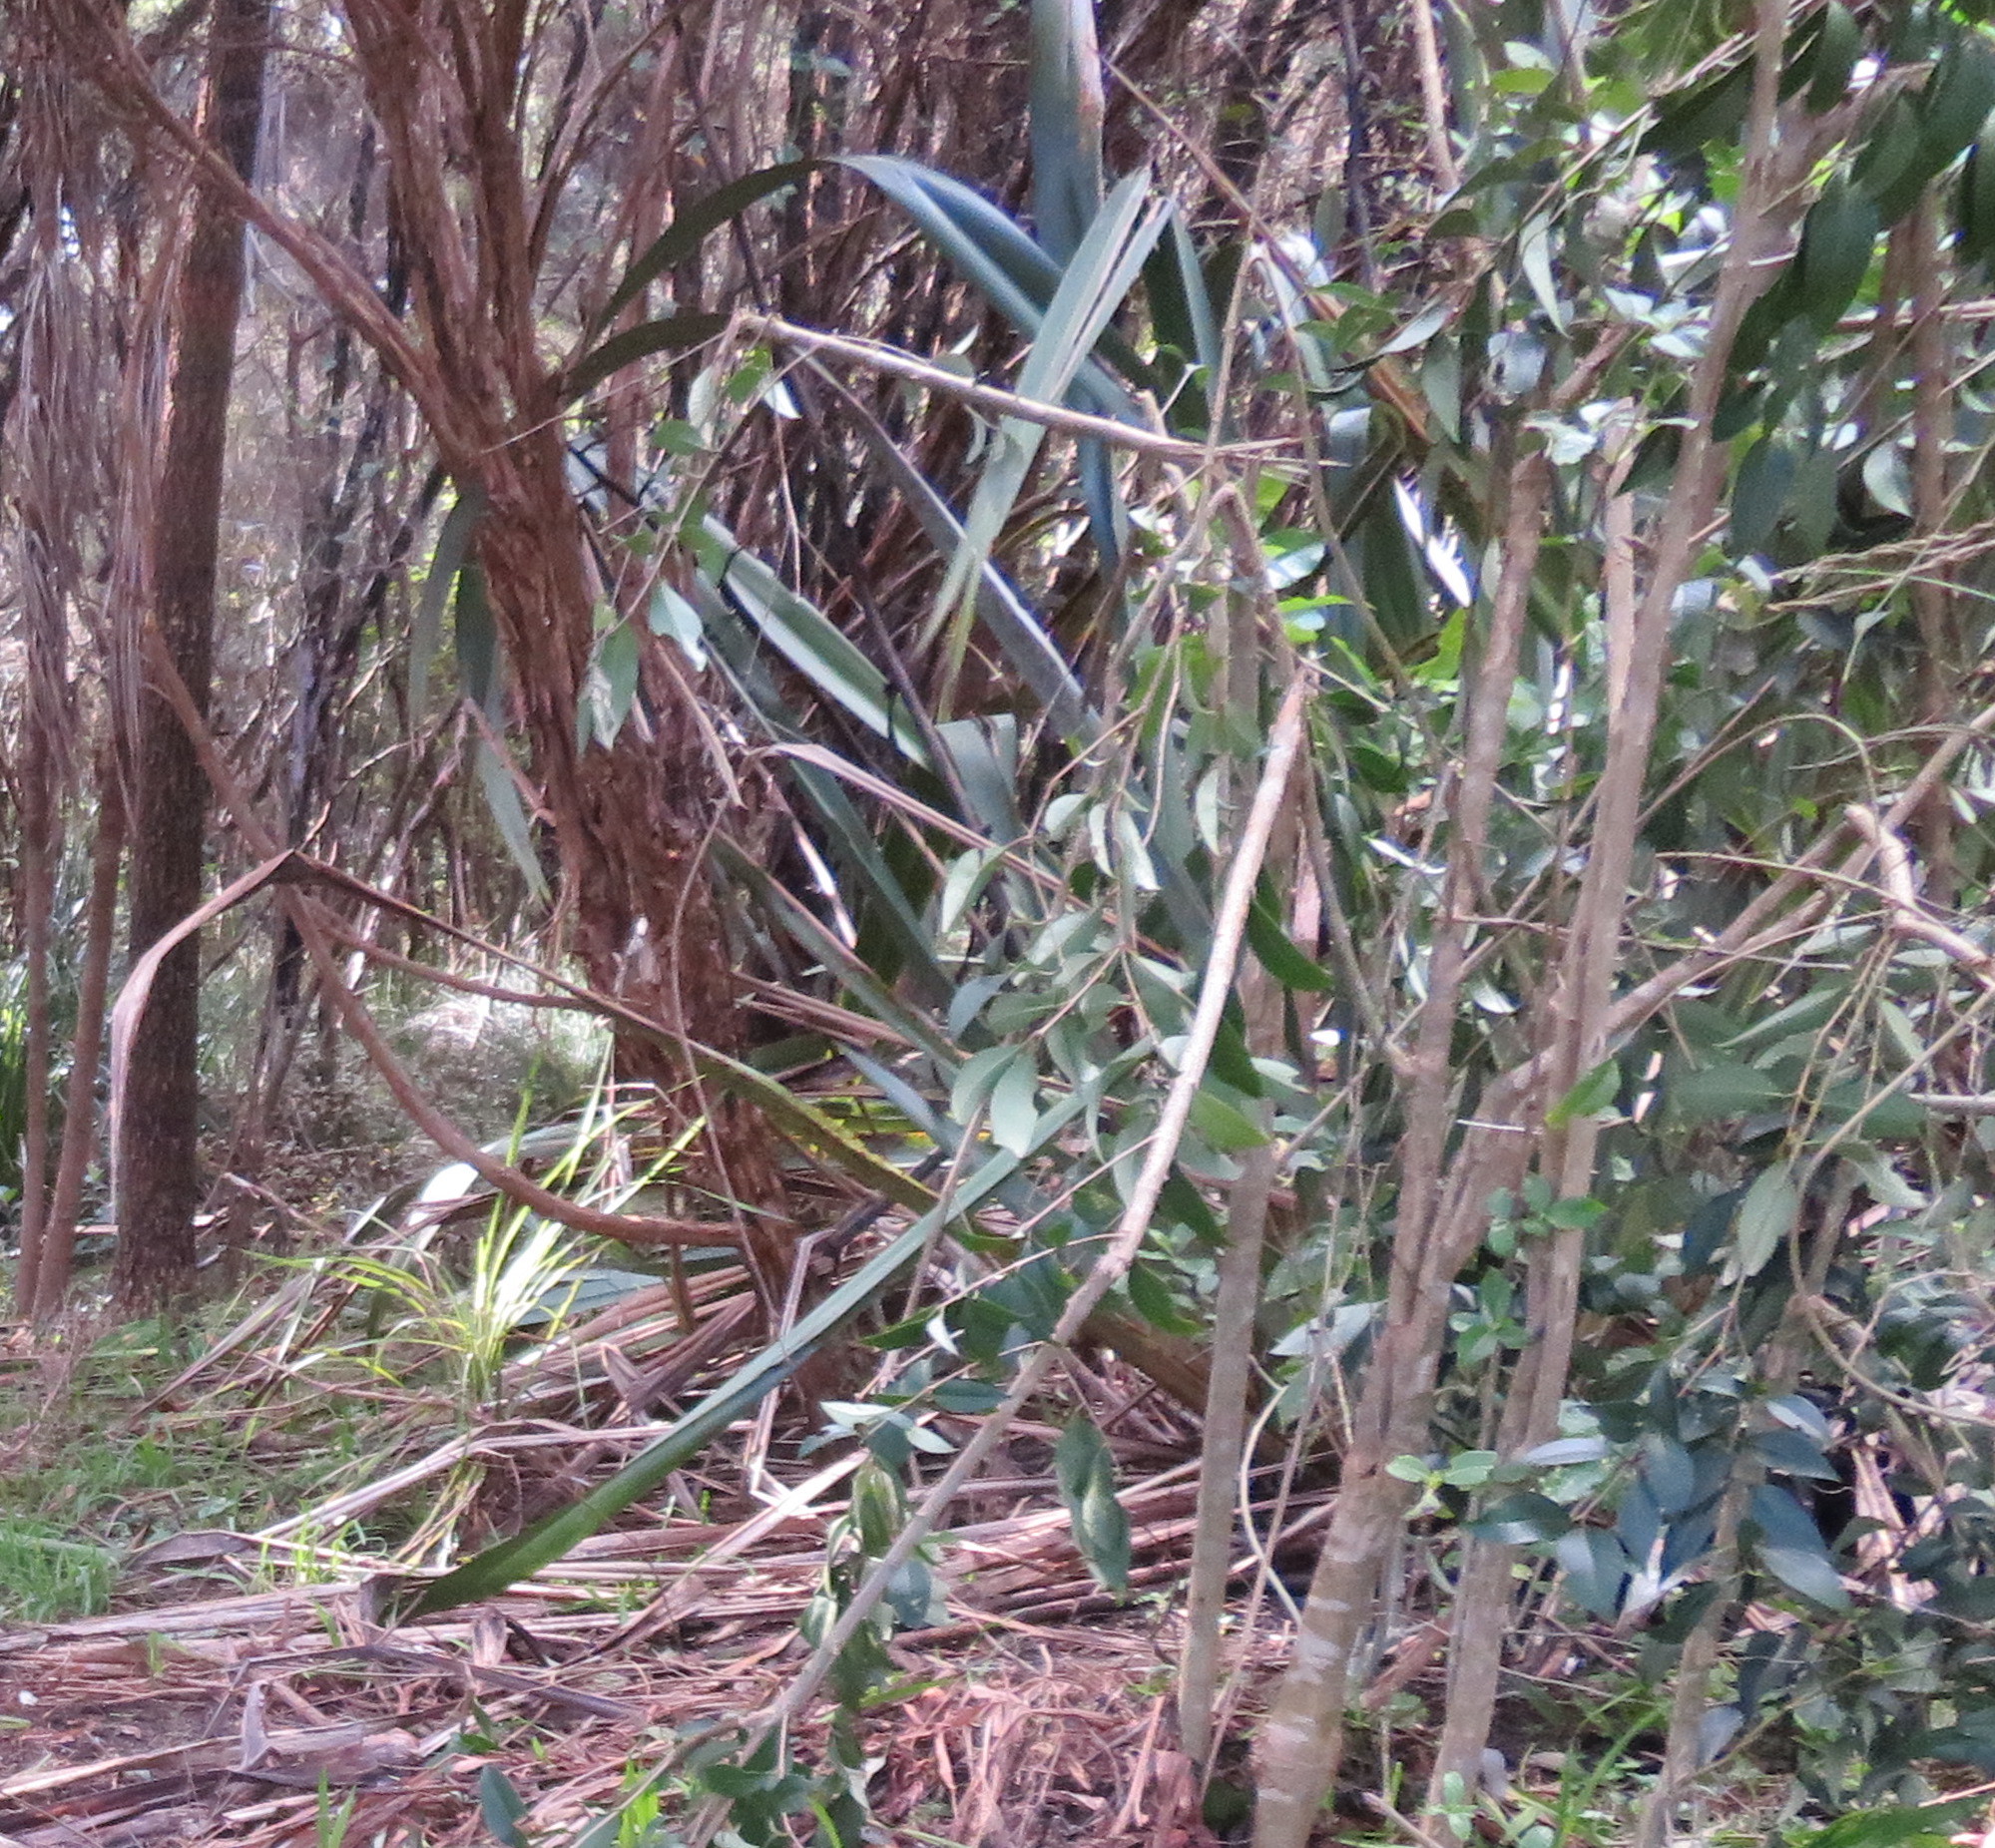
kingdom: Plantae
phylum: Tracheophyta
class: Magnoliopsida
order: Lamiales
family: Oleaceae
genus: Ligustrum
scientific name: Ligustrum lucidum
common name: Glossy privet
